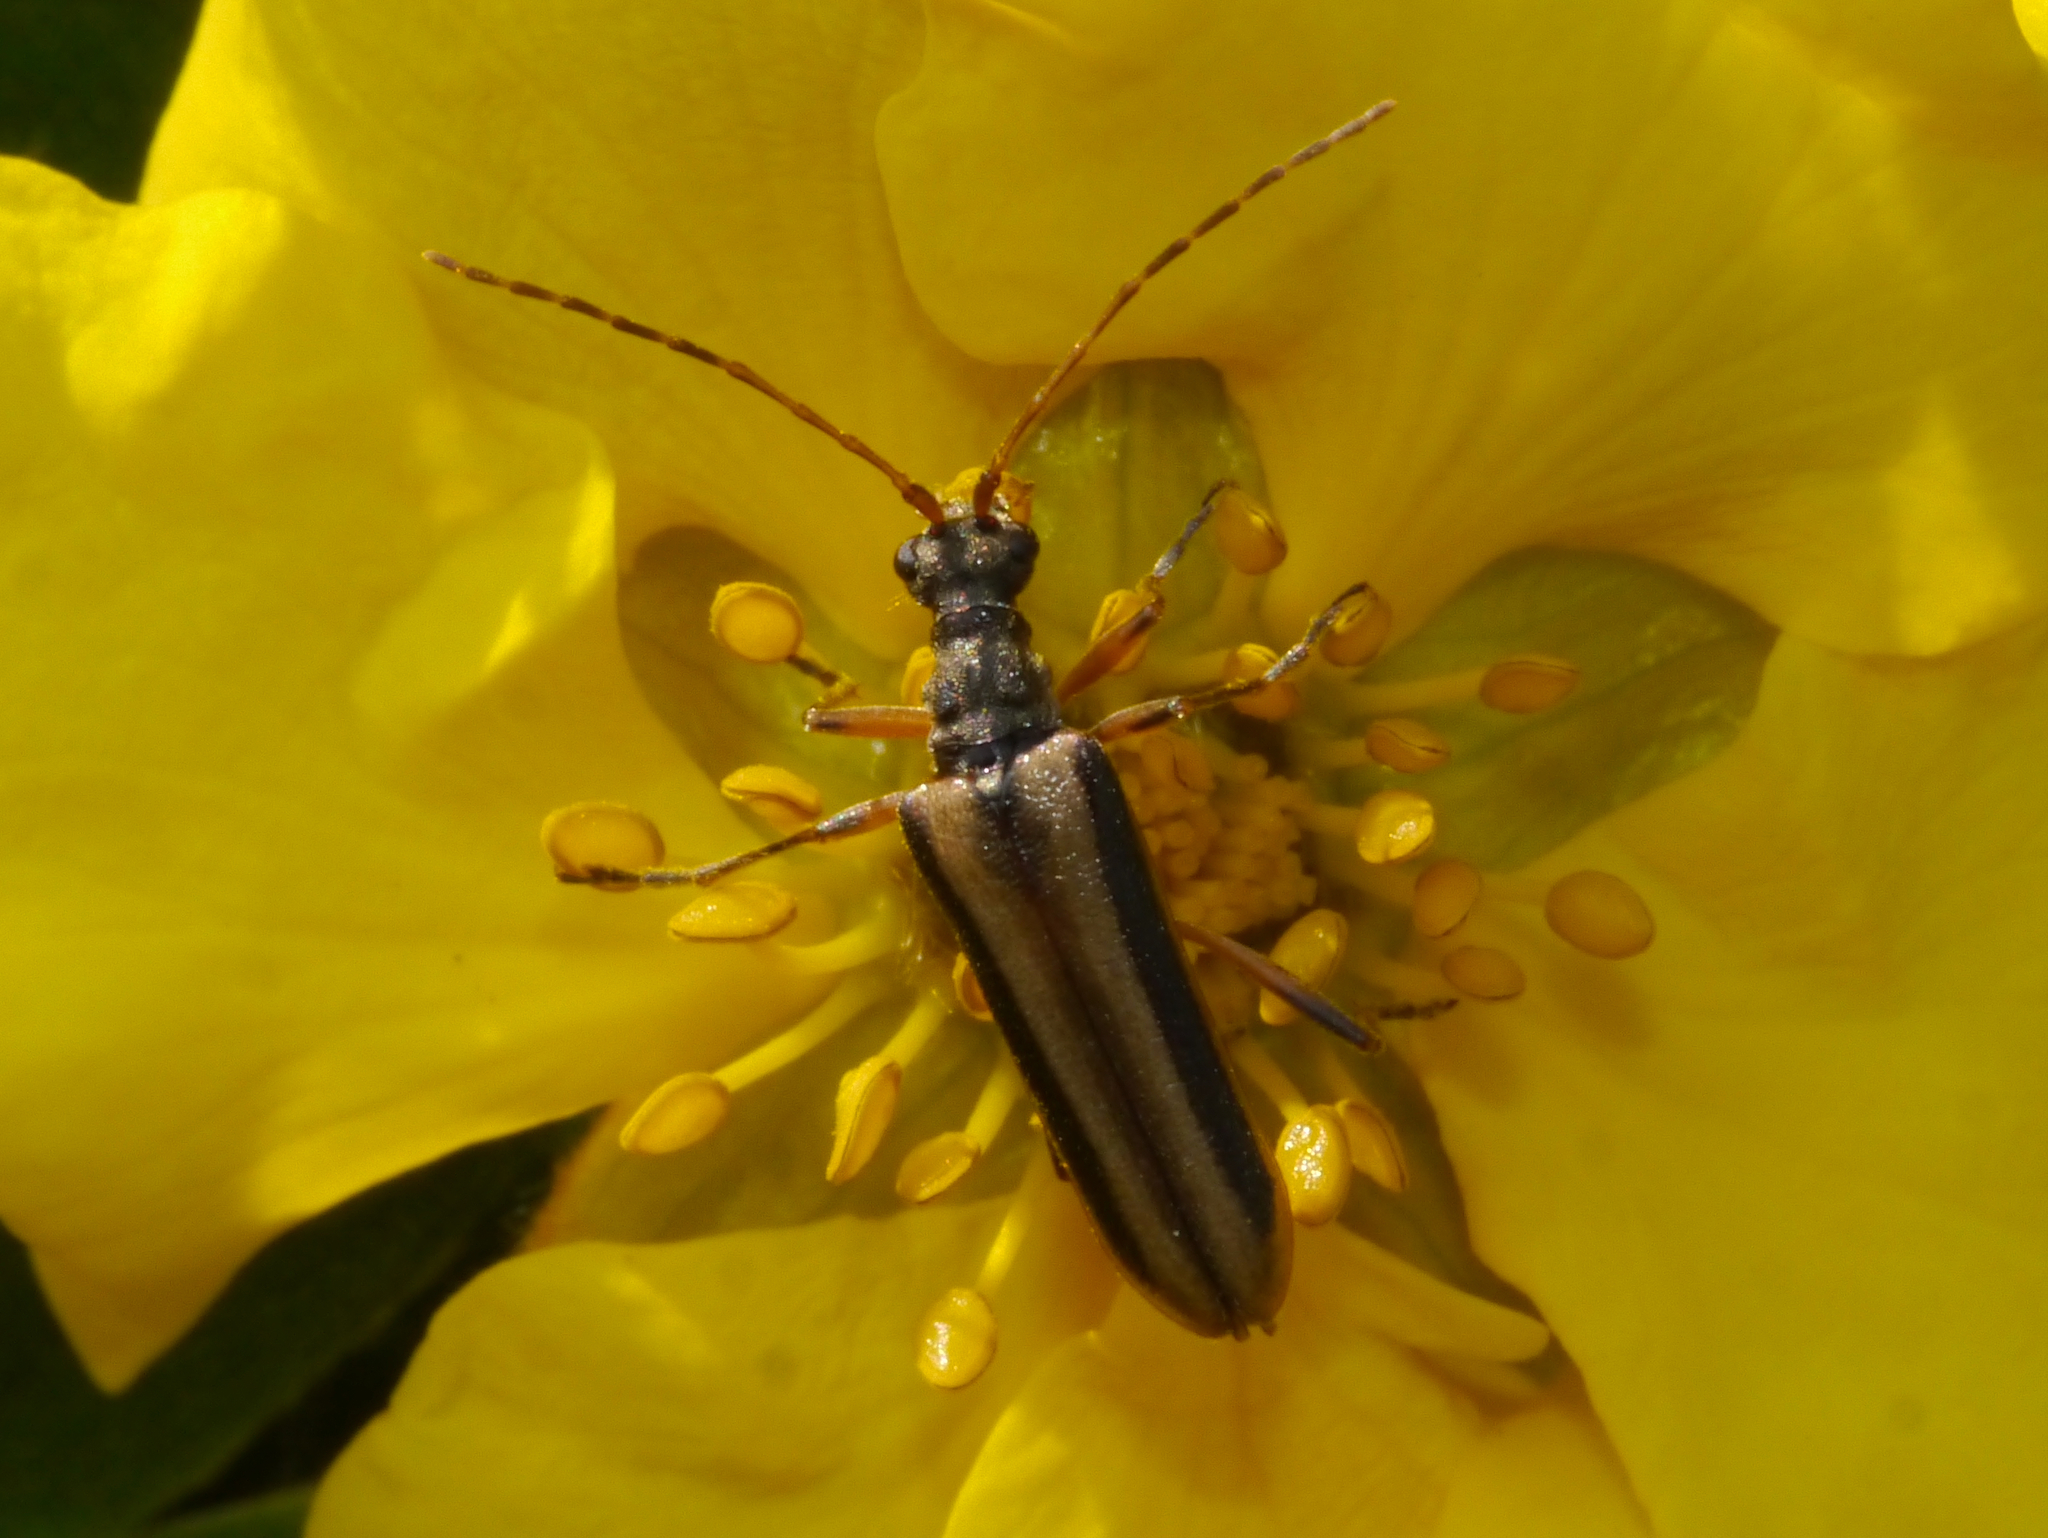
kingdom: Animalia
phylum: Arthropoda
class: Insecta
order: Coleoptera
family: Cerambycidae
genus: Leptalia
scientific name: Leptalia macilenta
